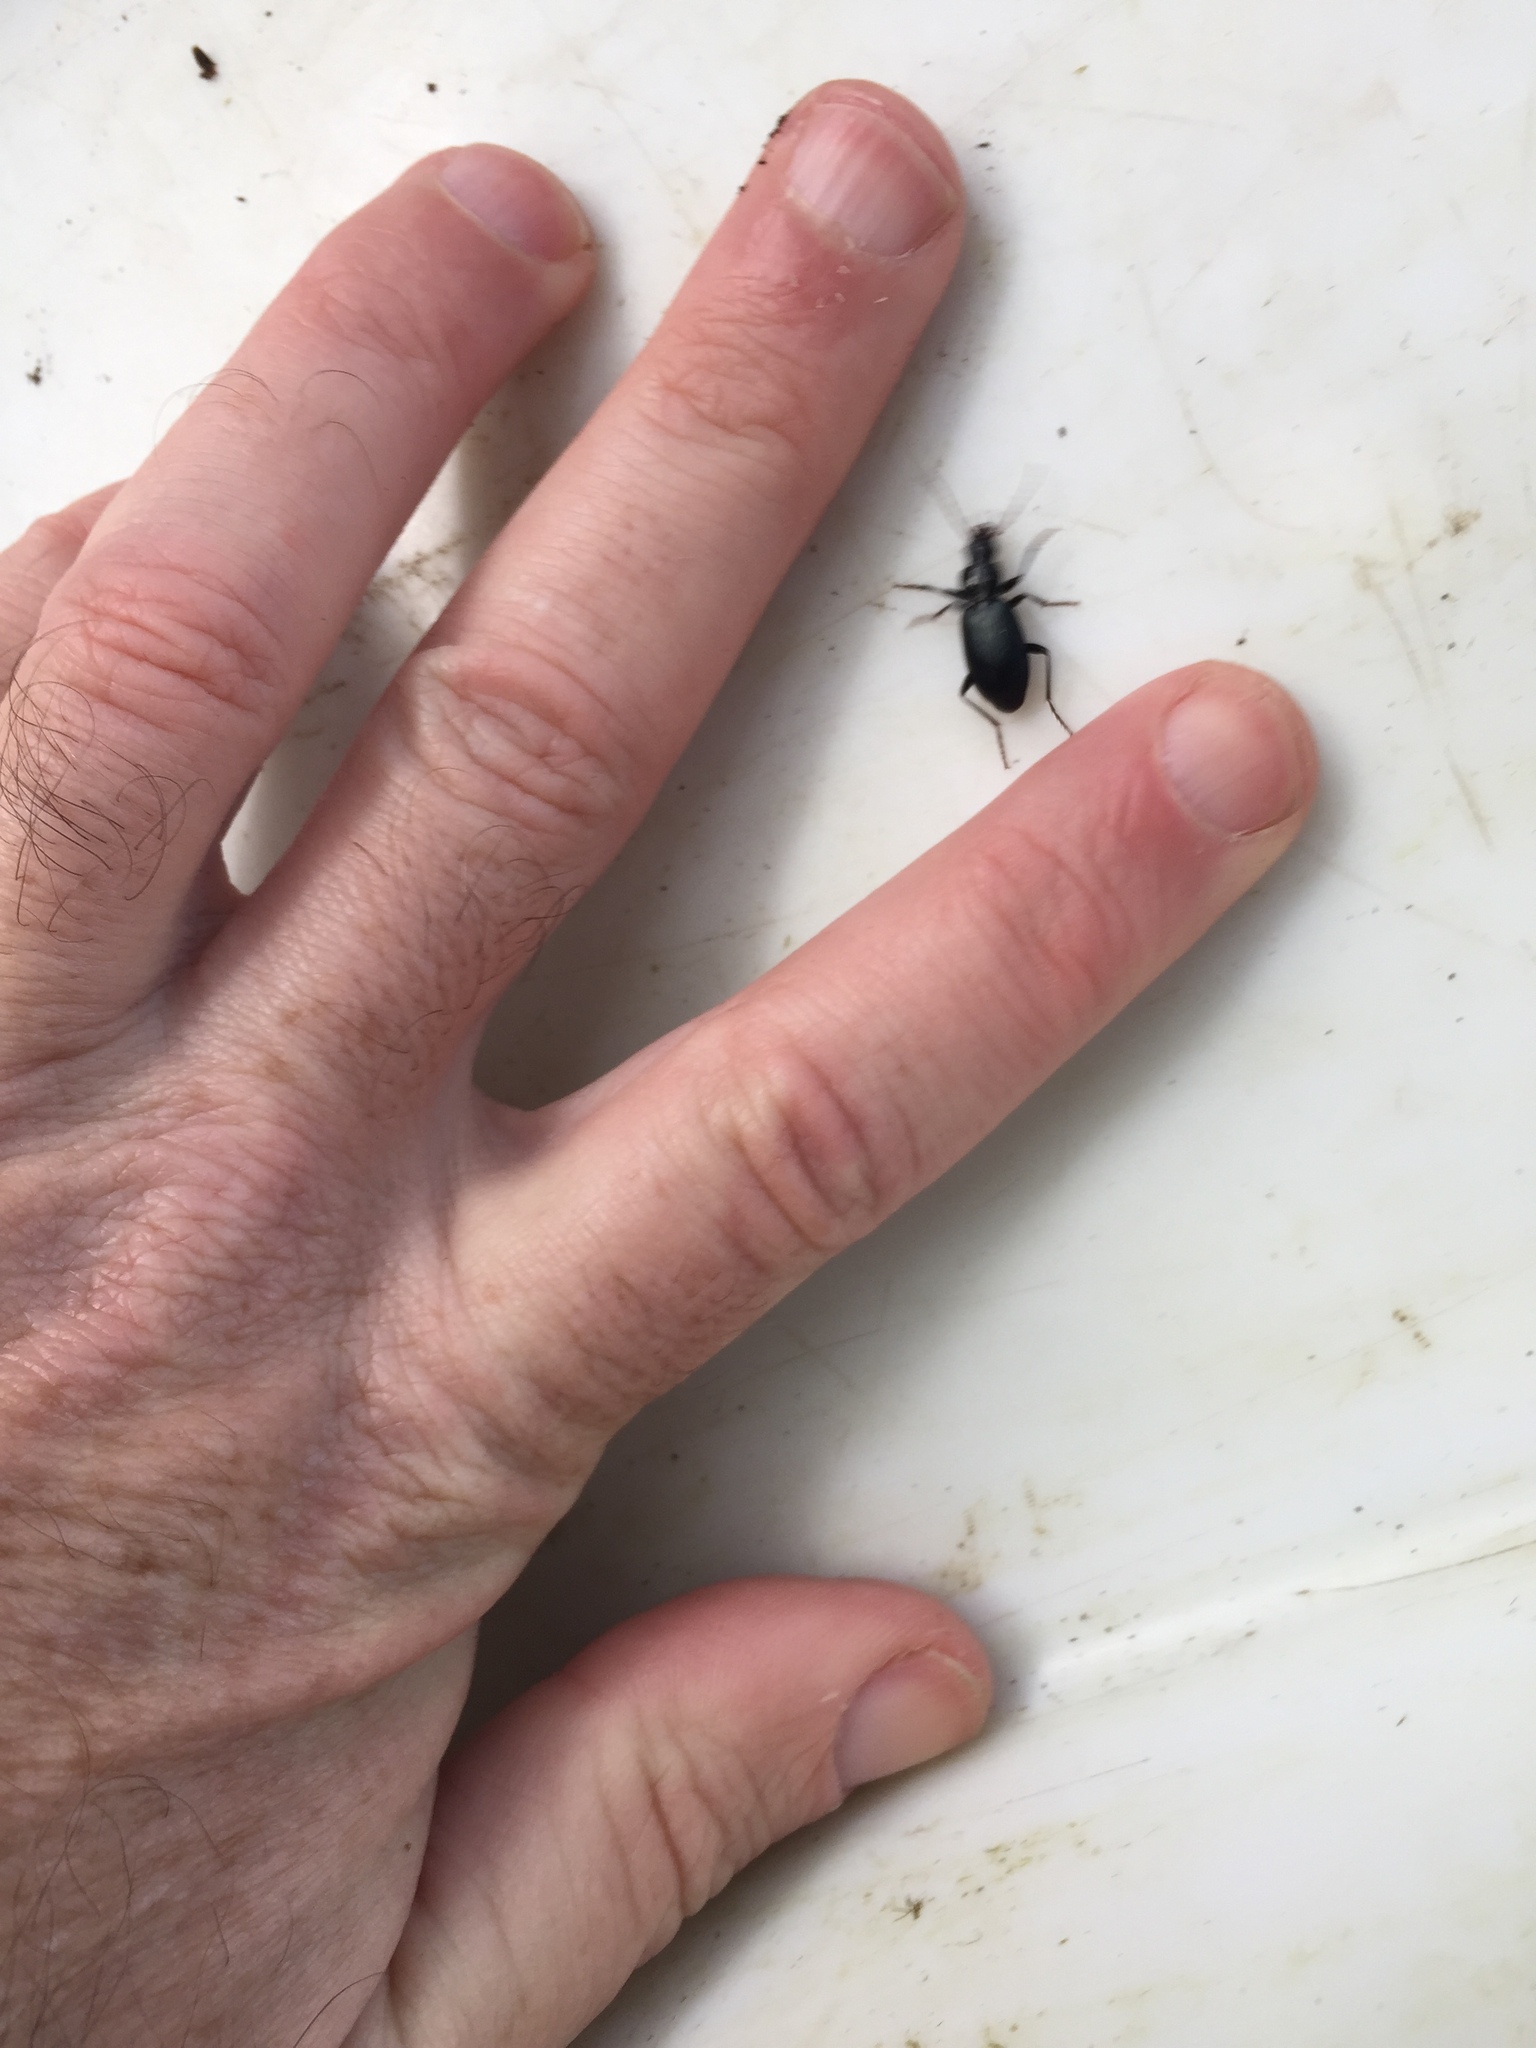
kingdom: Animalia
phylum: Arthropoda
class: Insecta
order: Coleoptera
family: Carabidae
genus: Laemostenus
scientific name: Laemostenus complanatus
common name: Cosmopolitan ground beetle
